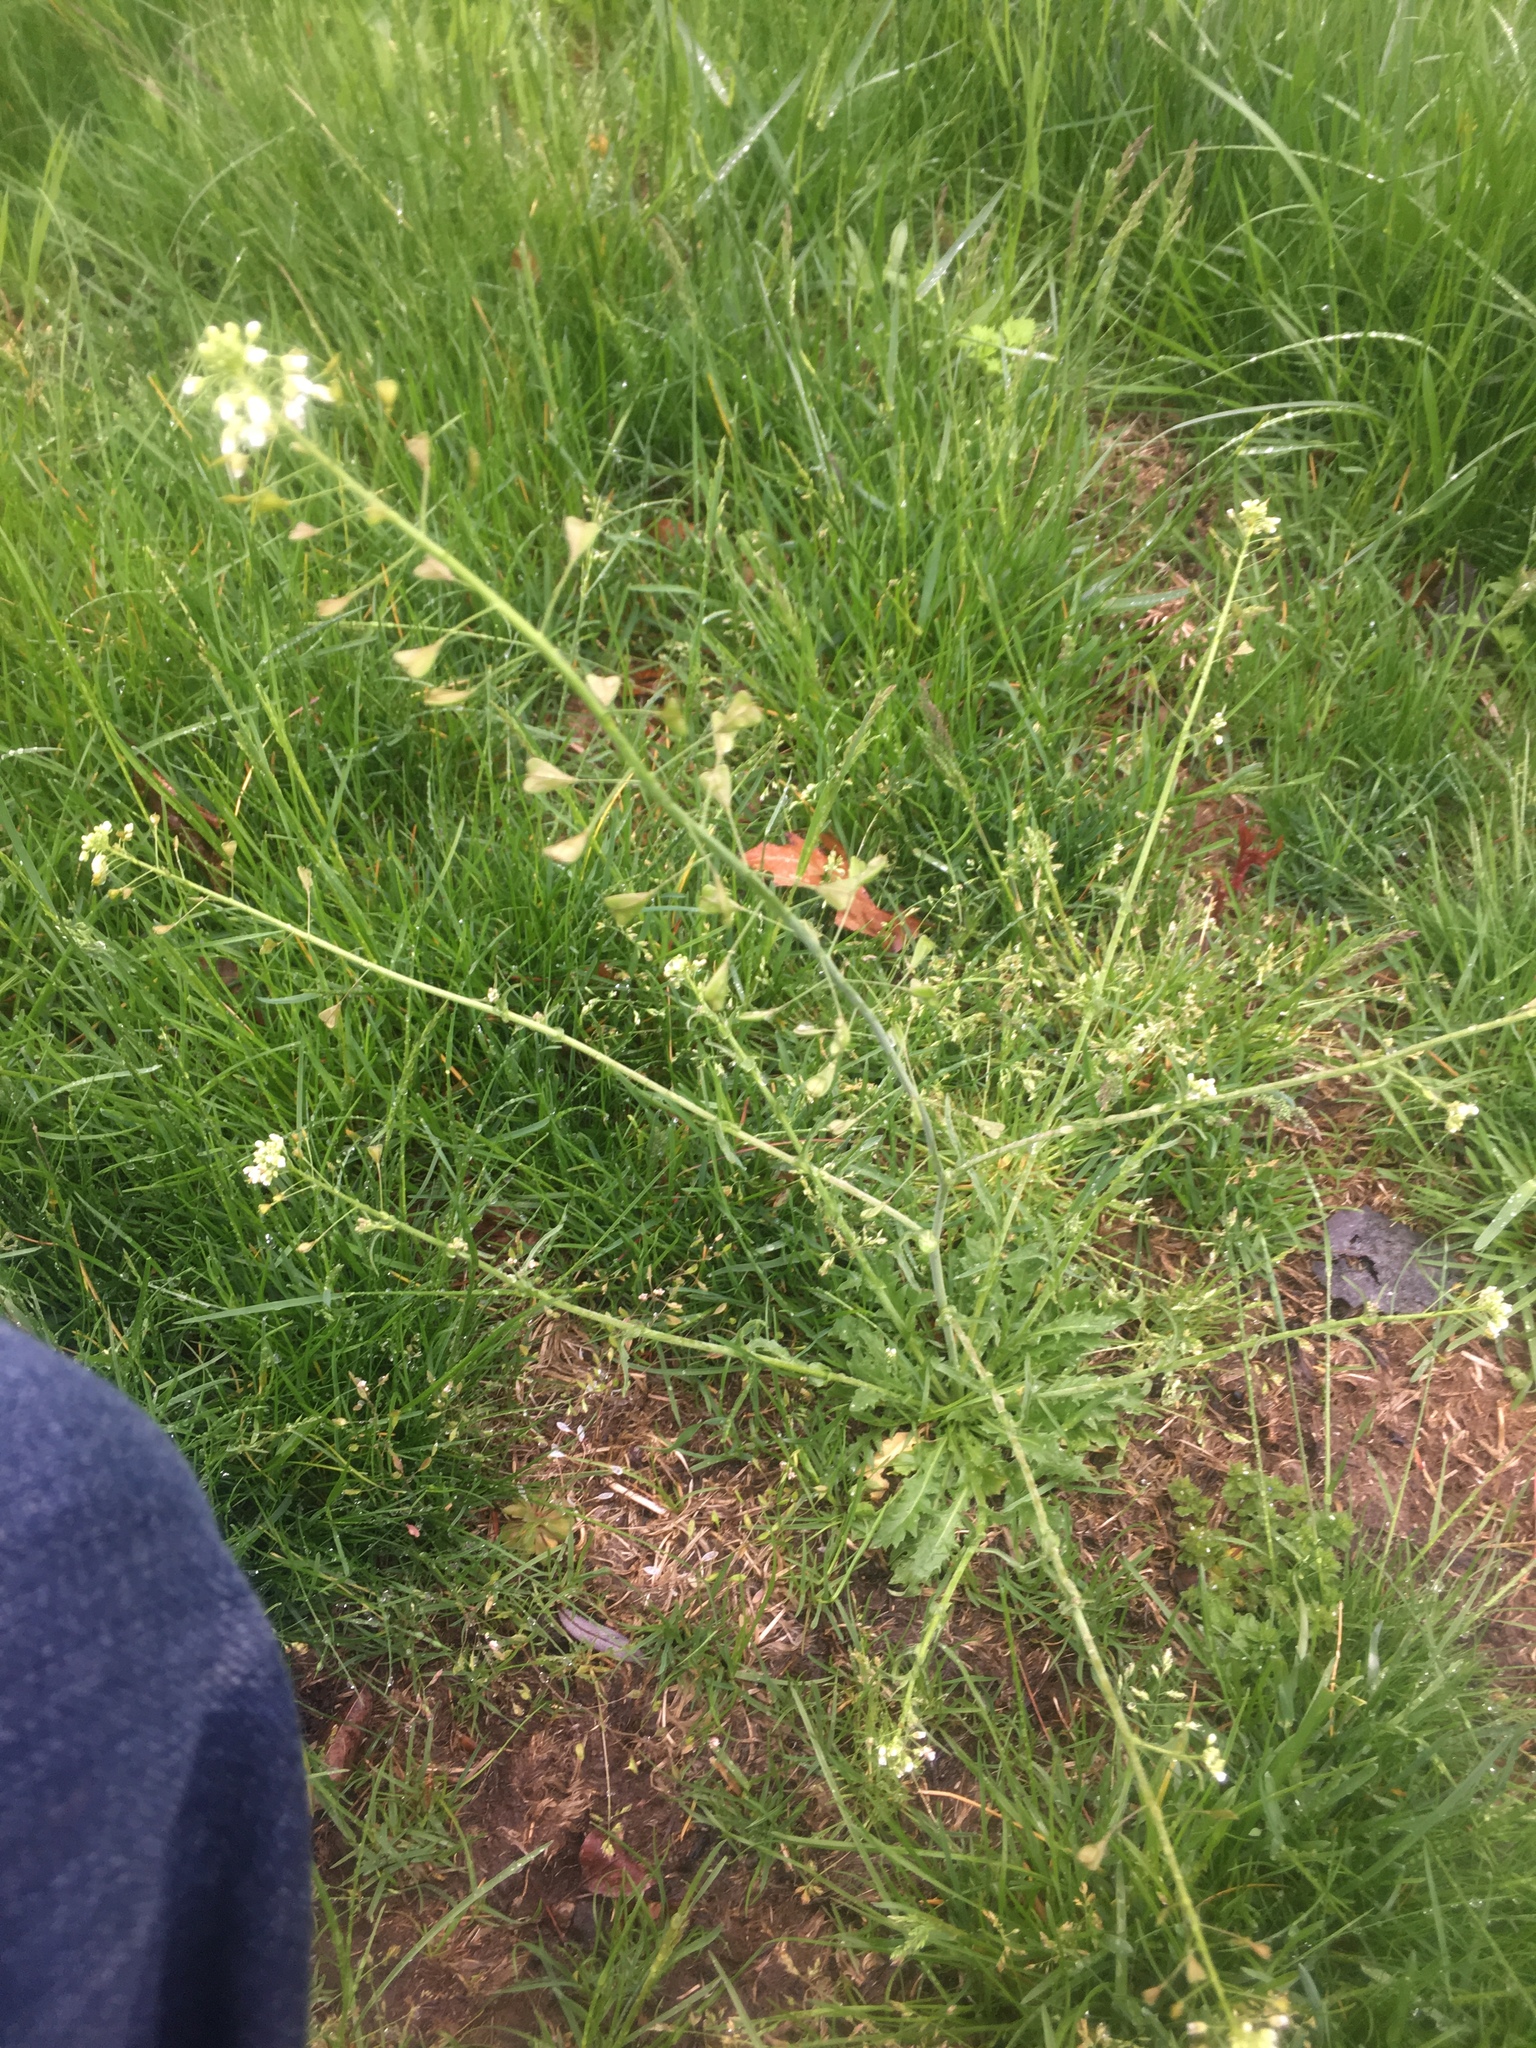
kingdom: Plantae
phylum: Tracheophyta
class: Magnoliopsida
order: Brassicales
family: Brassicaceae
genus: Capsella
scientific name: Capsella bursa-pastoris
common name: Shepherd's purse
